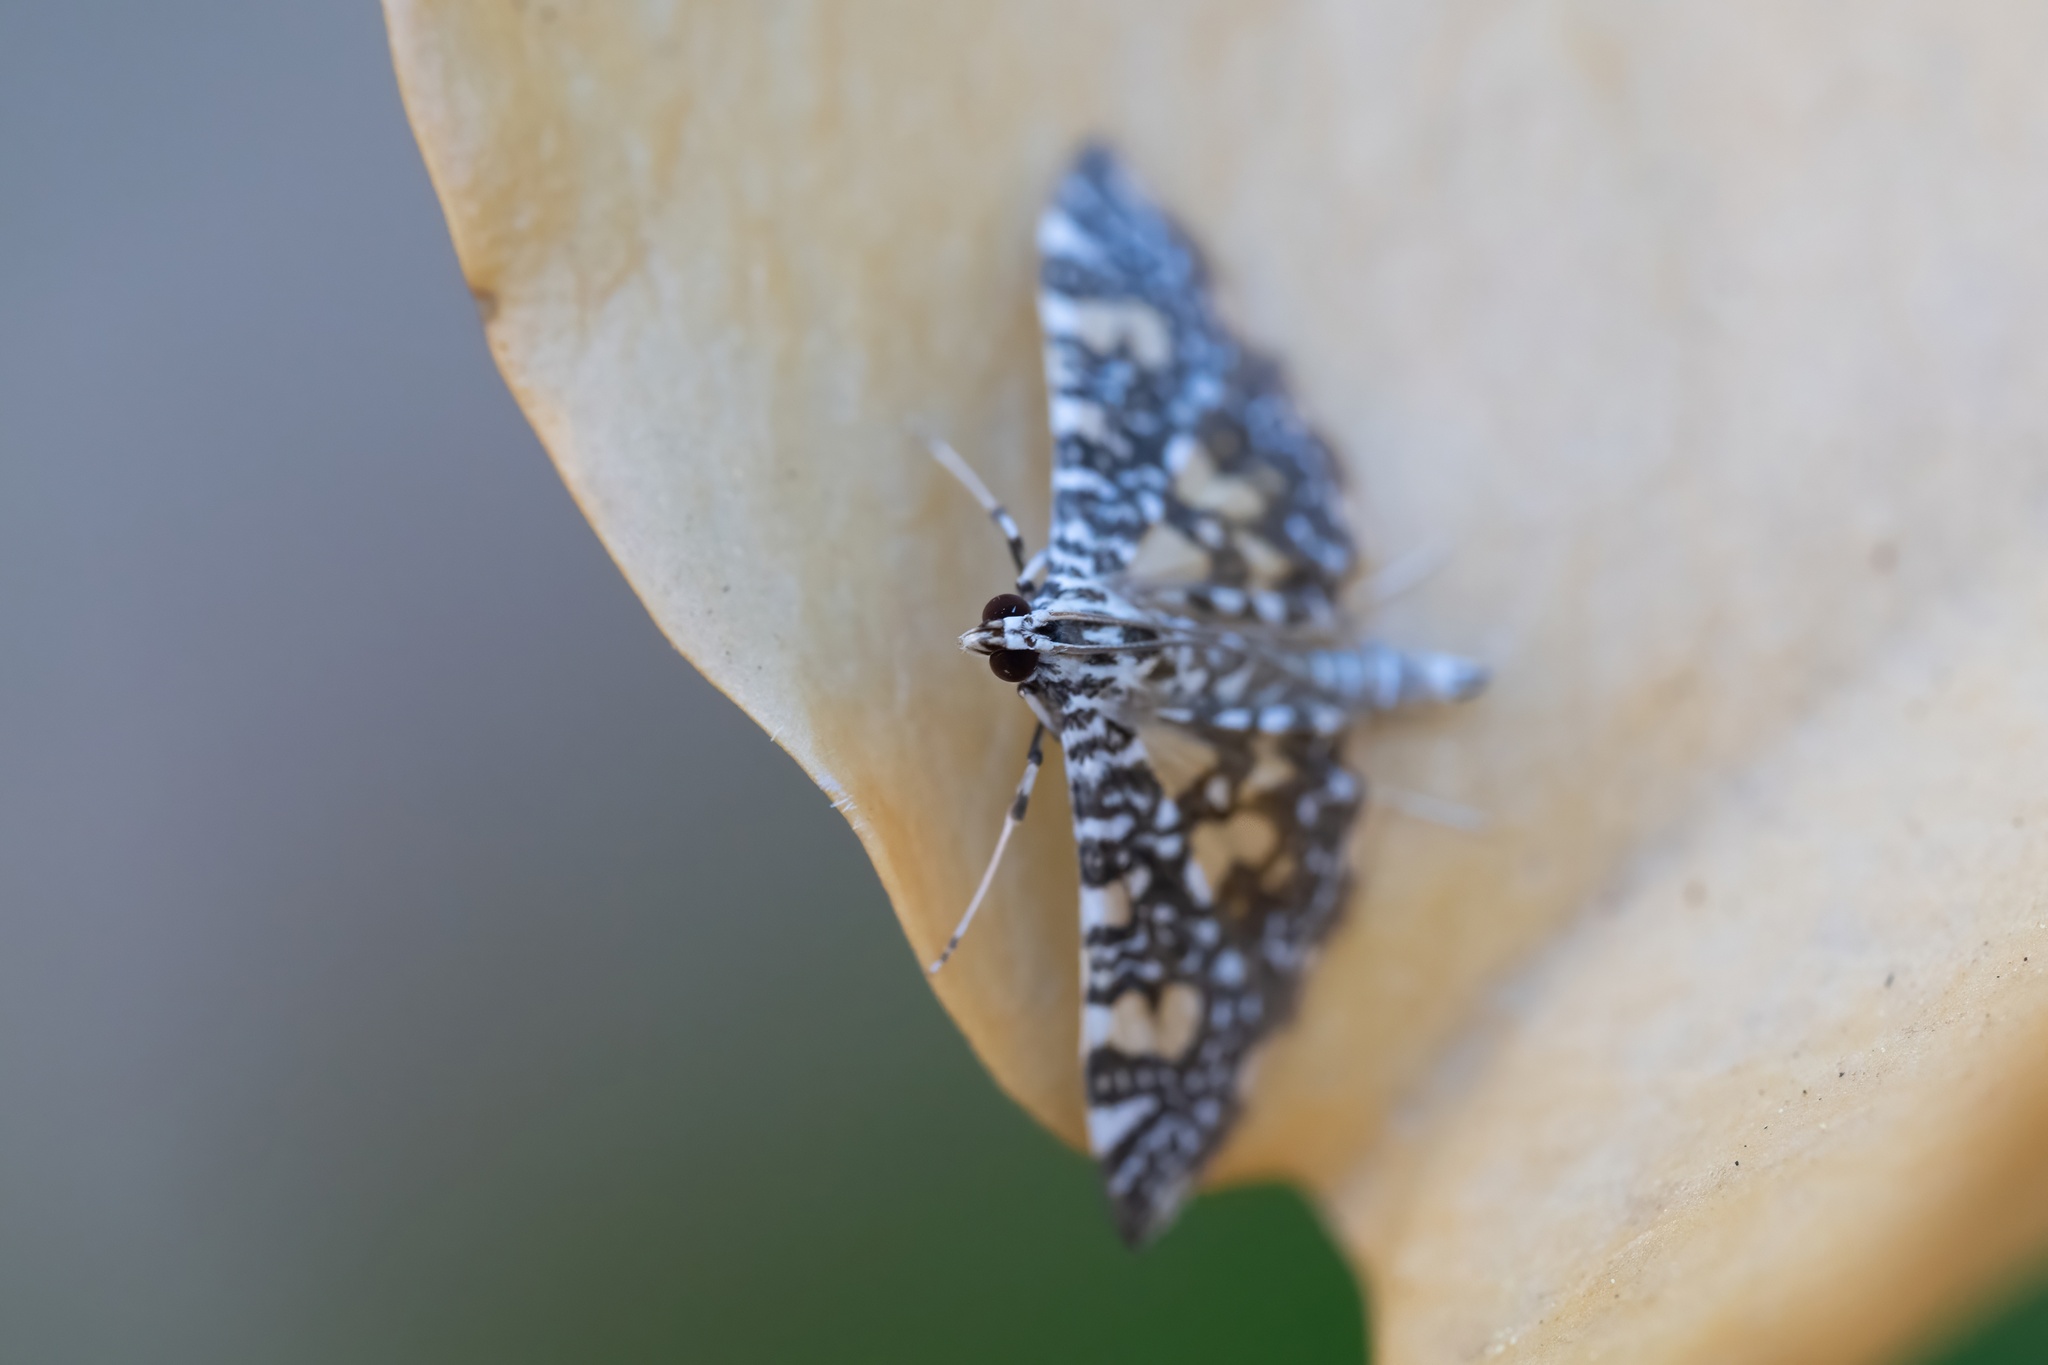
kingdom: Animalia
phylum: Arthropoda
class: Insecta
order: Lepidoptera
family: Crambidae
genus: Glyphodes
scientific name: Glyphodes onychinalis
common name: Swan plant moth
